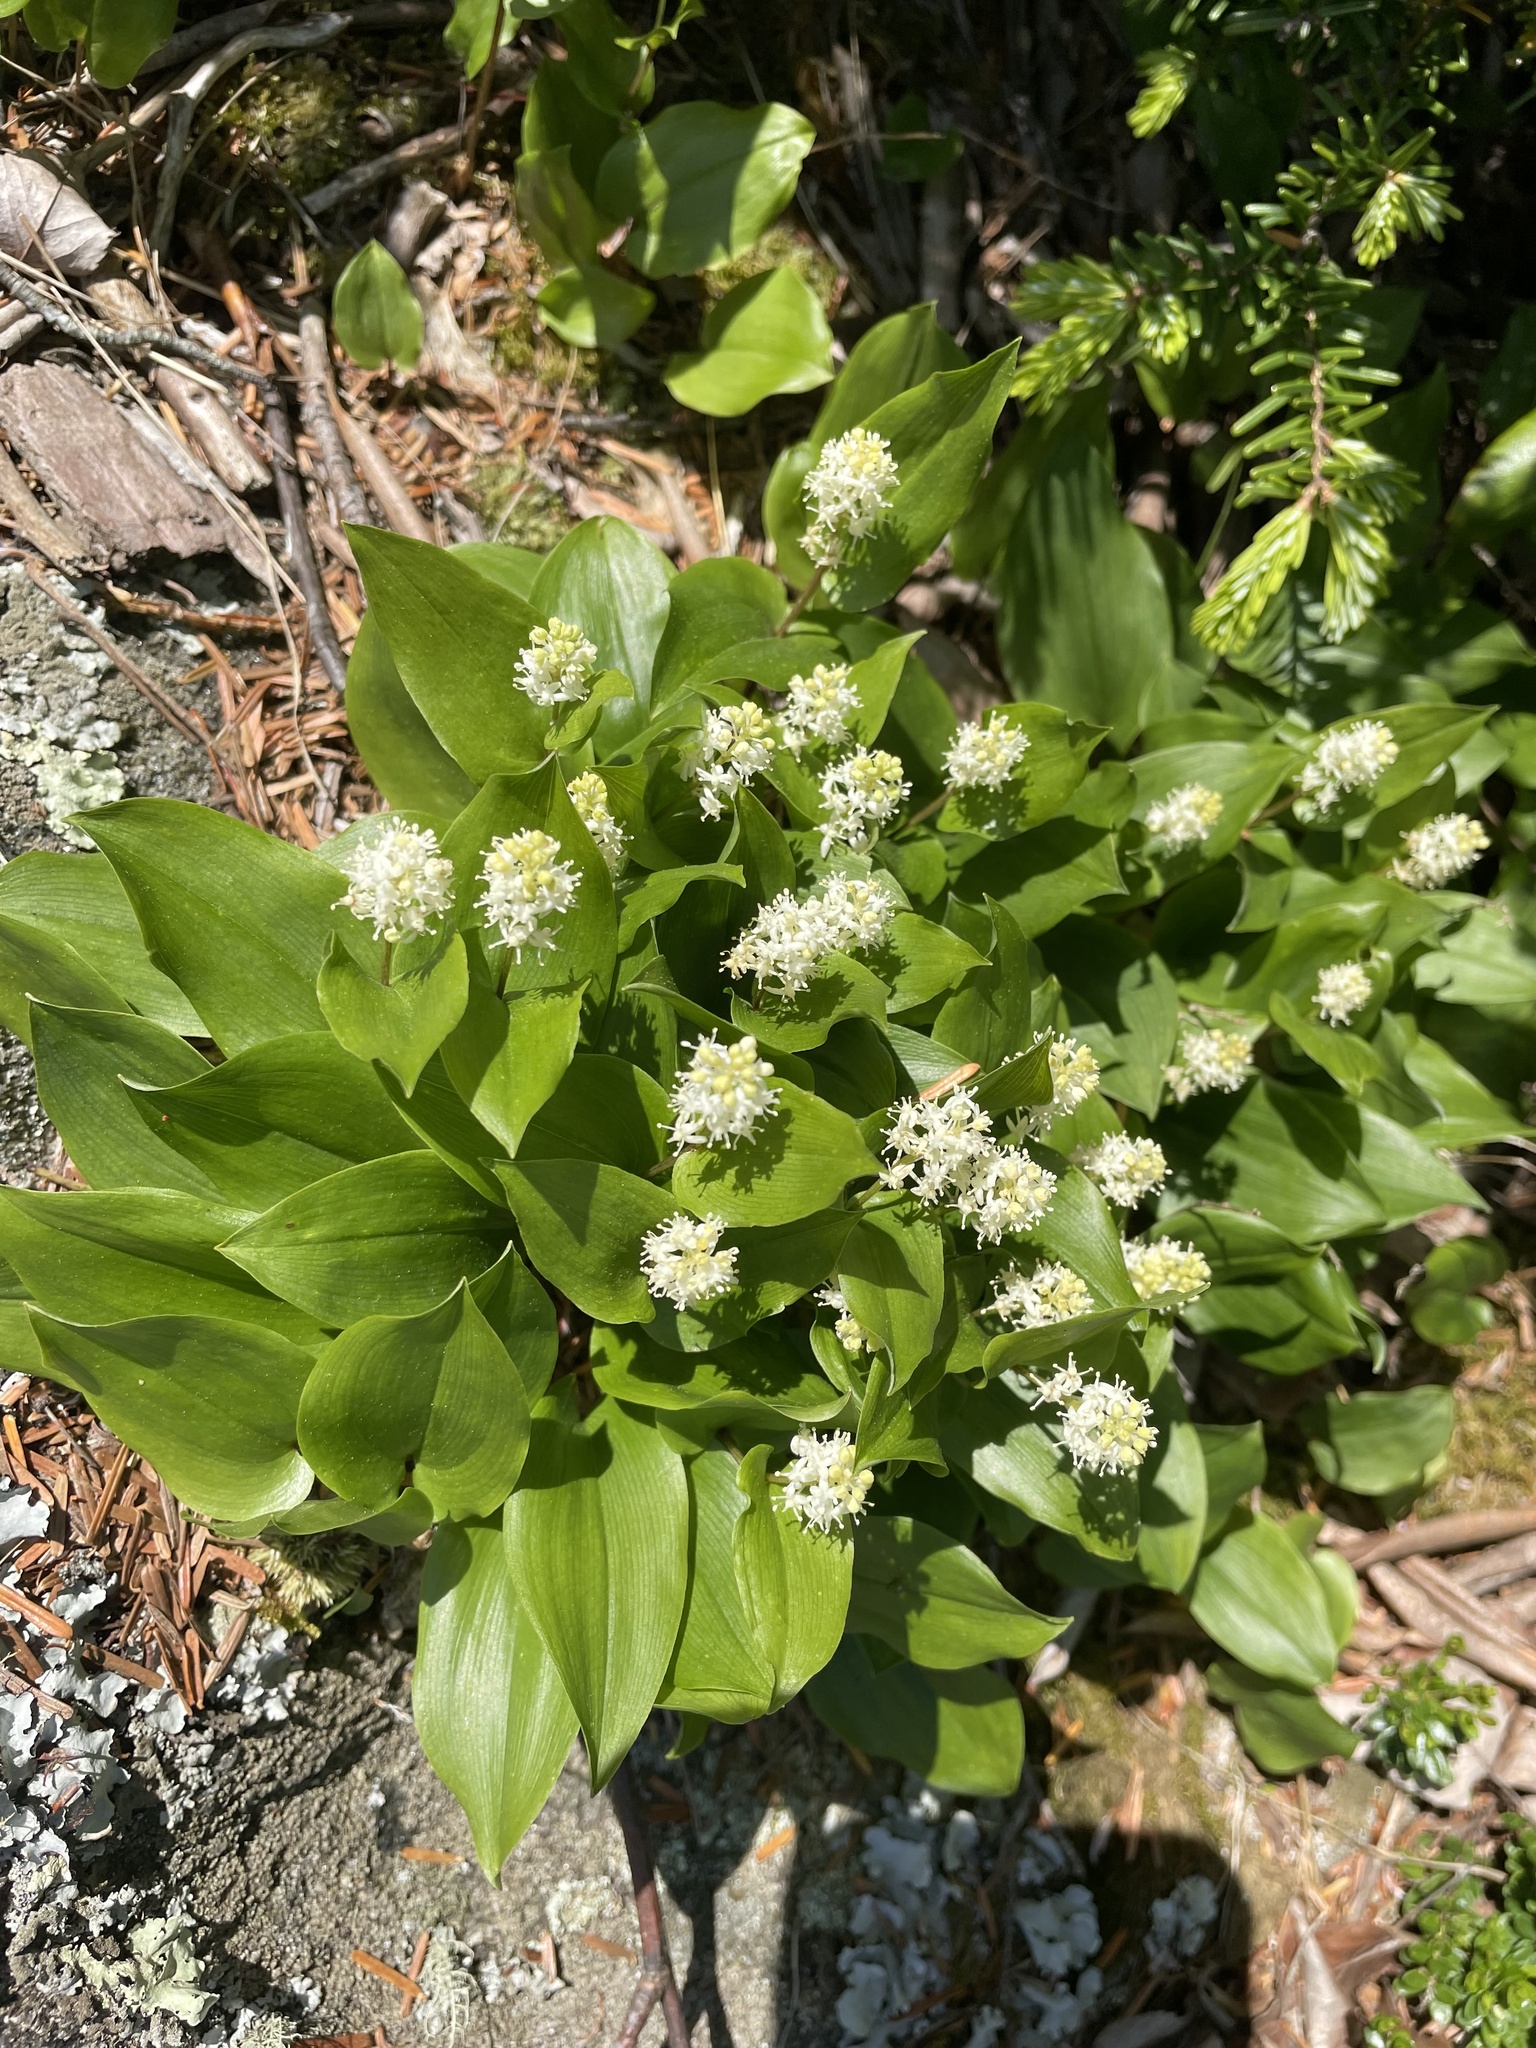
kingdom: Plantae
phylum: Tracheophyta
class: Liliopsida
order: Asparagales
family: Asparagaceae
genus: Maianthemum
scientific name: Maianthemum canadense
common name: False lily-of-the-valley
